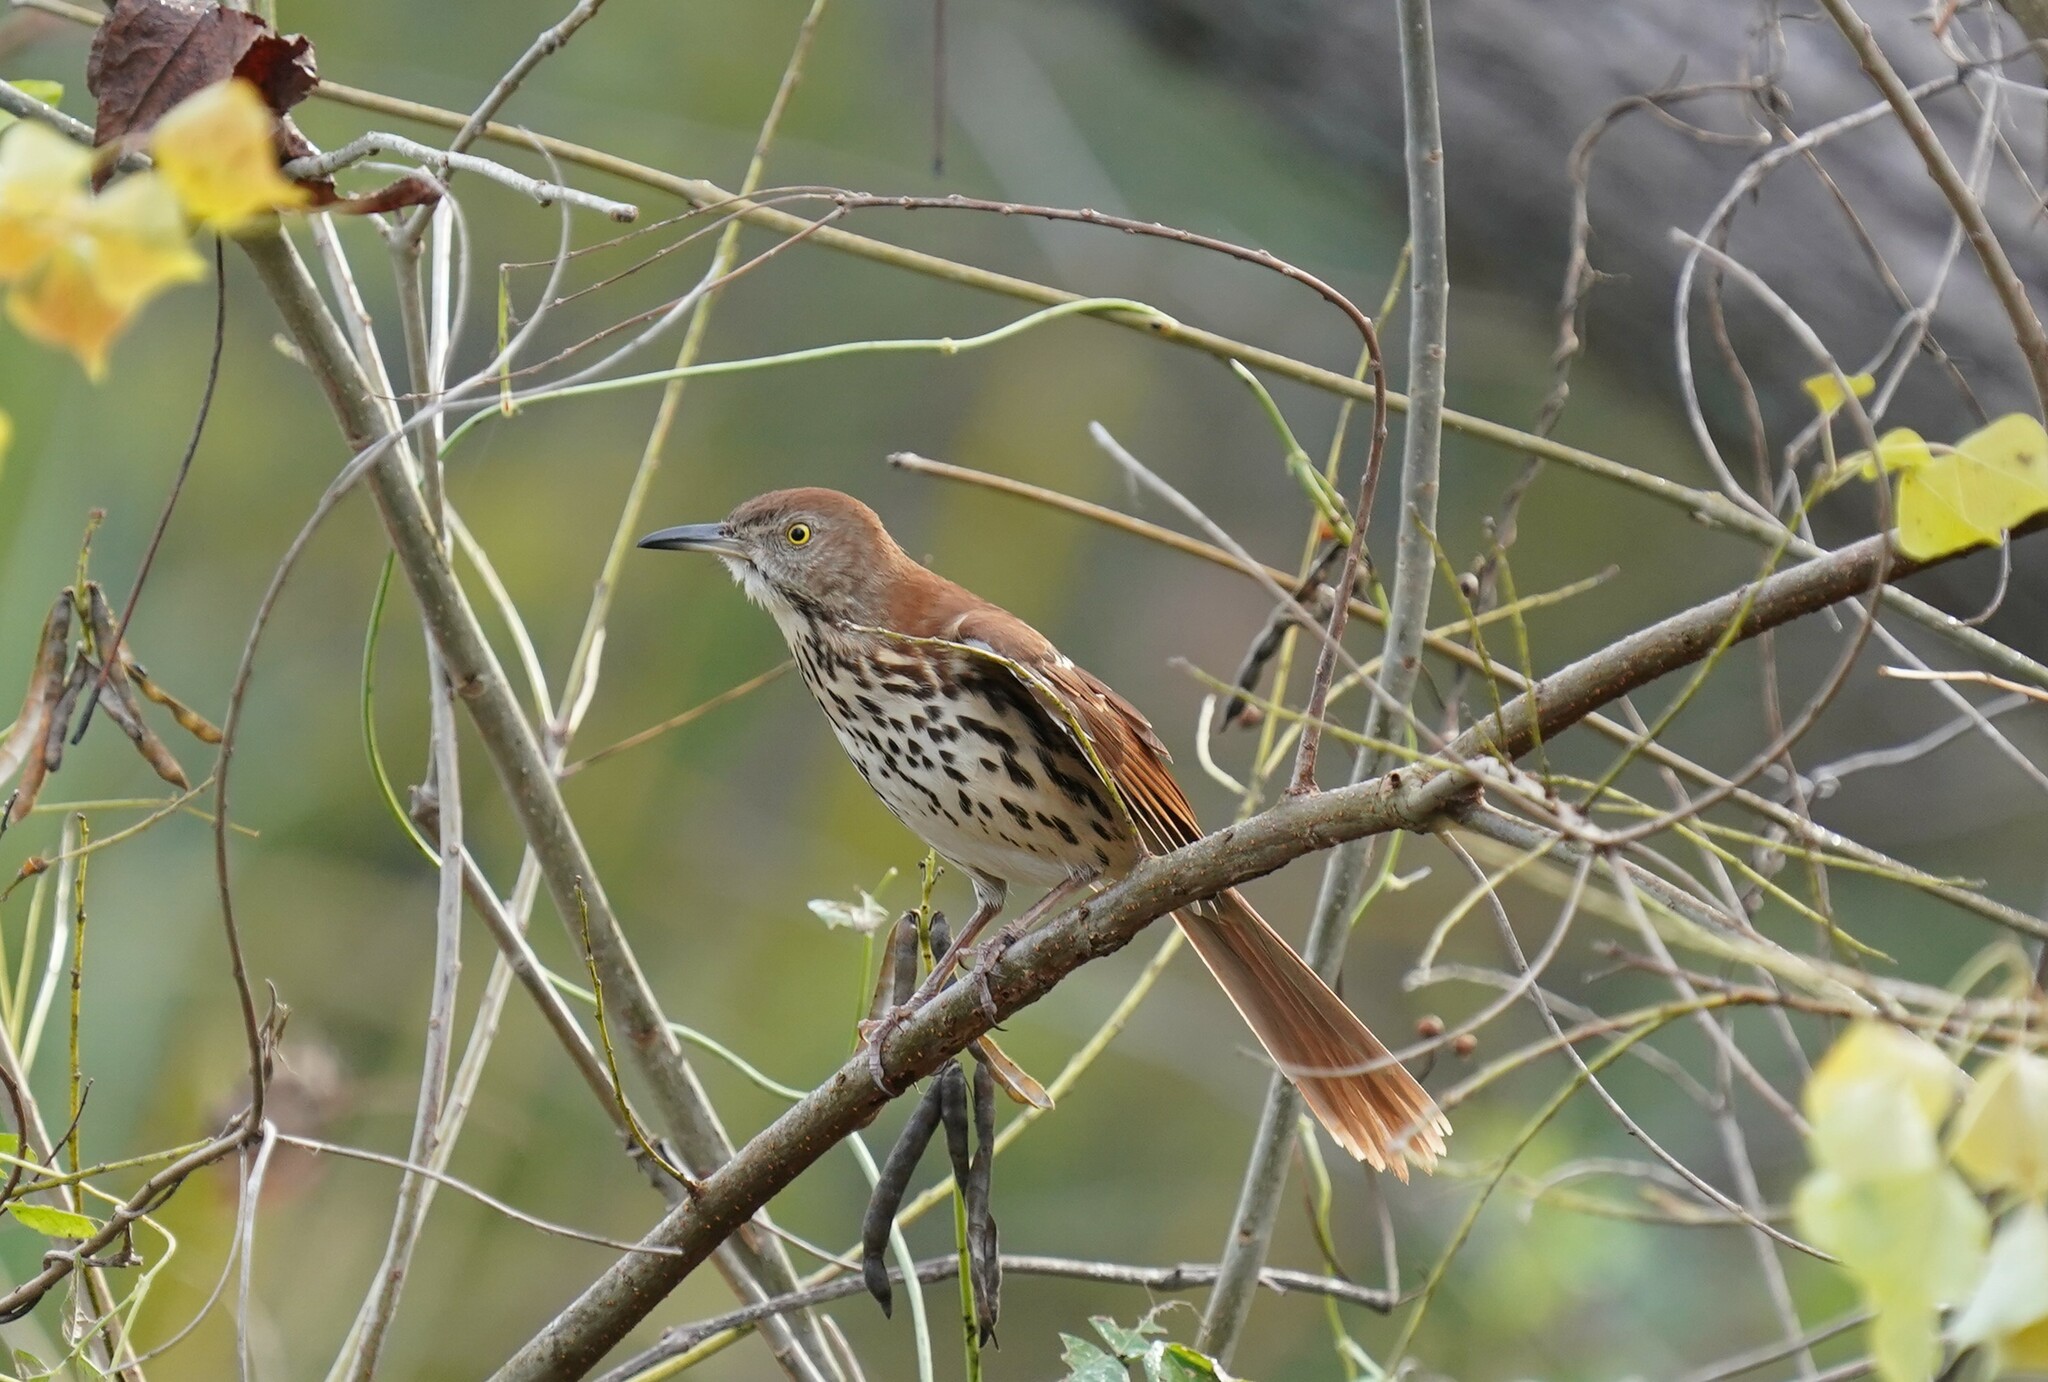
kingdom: Animalia
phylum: Chordata
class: Aves
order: Passeriformes
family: Mimidae
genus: Toxostoma
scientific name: Toxostoma rufum
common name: Brown thrasher
